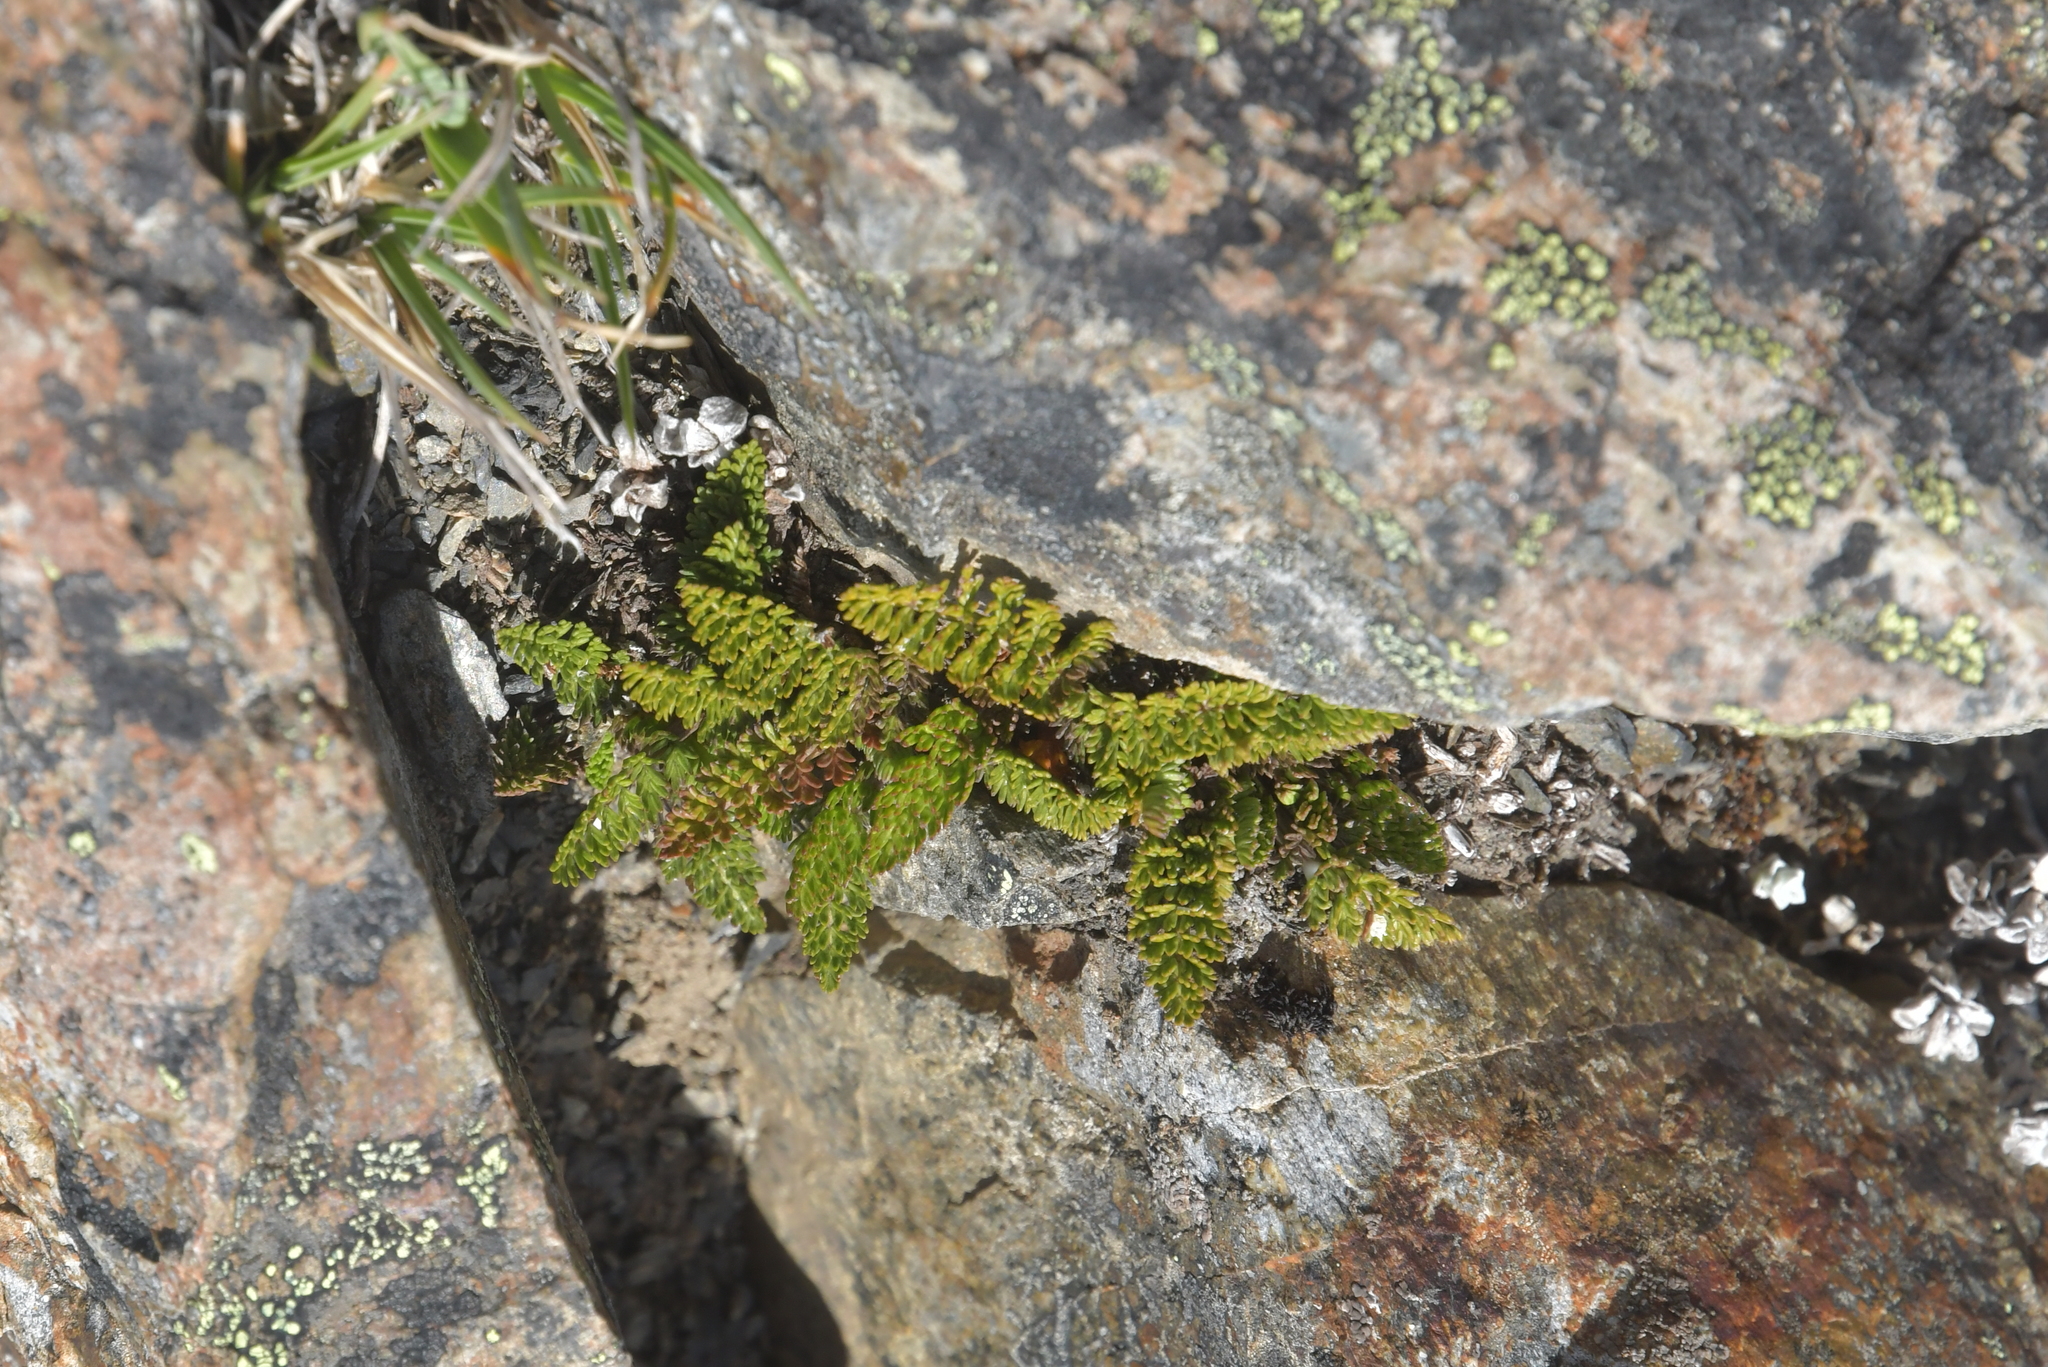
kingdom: Plantae
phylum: Tracheophyta
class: Magnoliopsida
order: Apiales
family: Apiaceae
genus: Anisotome
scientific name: Anisotome flexuosa
